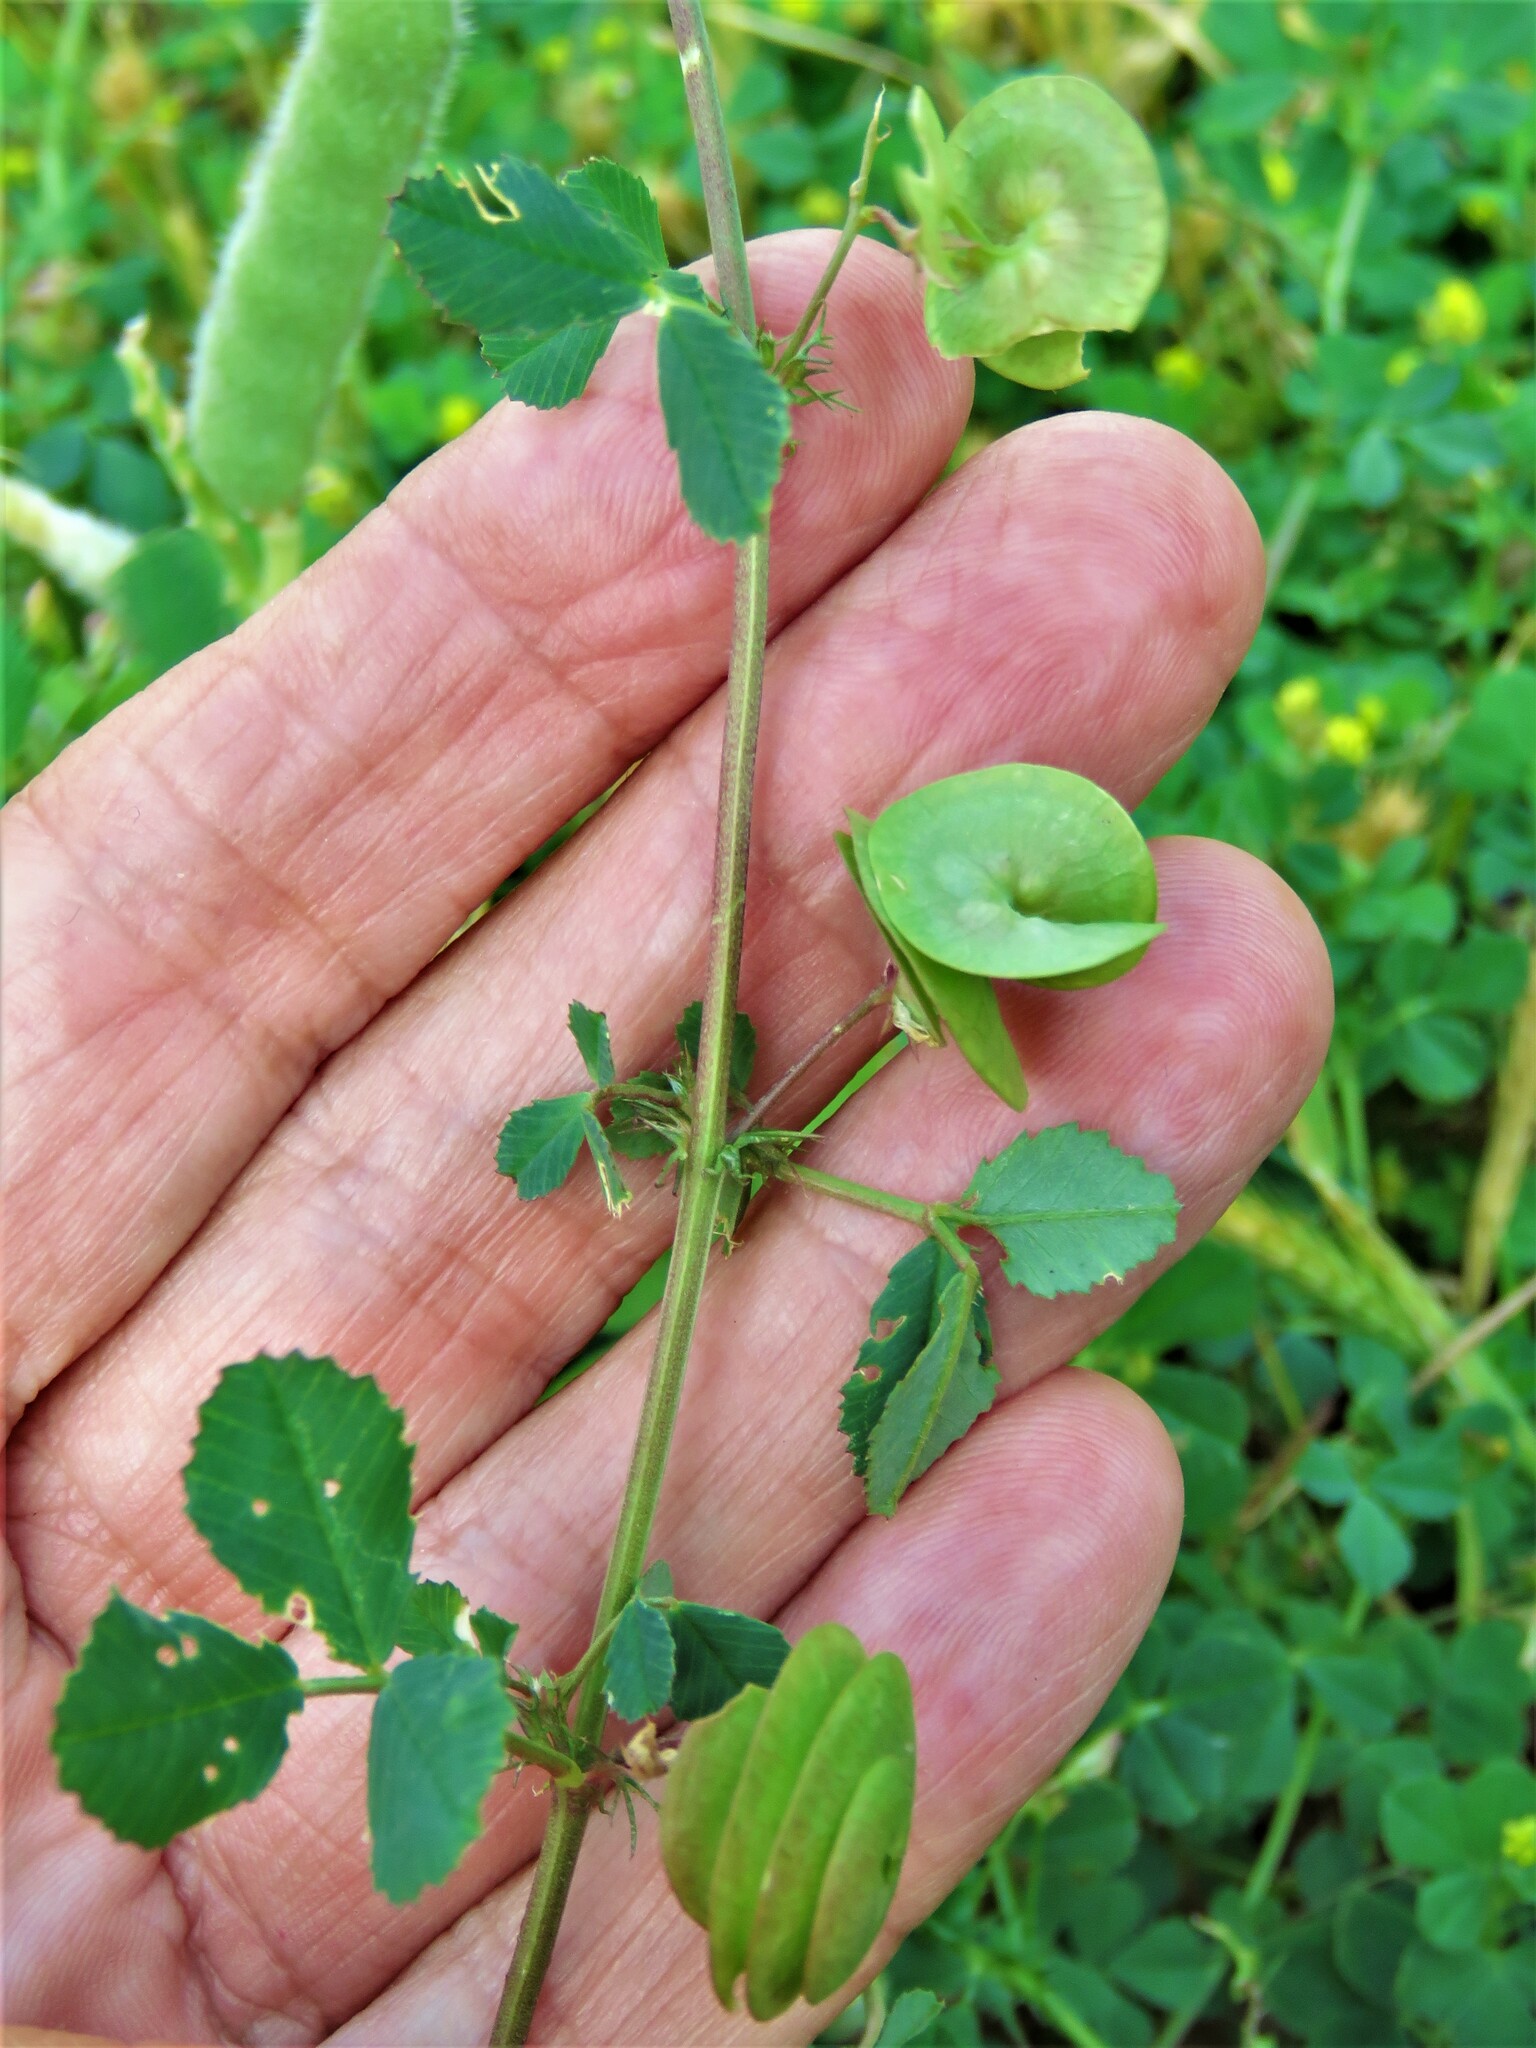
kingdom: Plantae
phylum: Tracheophyta
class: Magnoliopsida
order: Fabales
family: Fabaceae
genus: Medicago
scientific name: Medicago orbicularis
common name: Button medick
